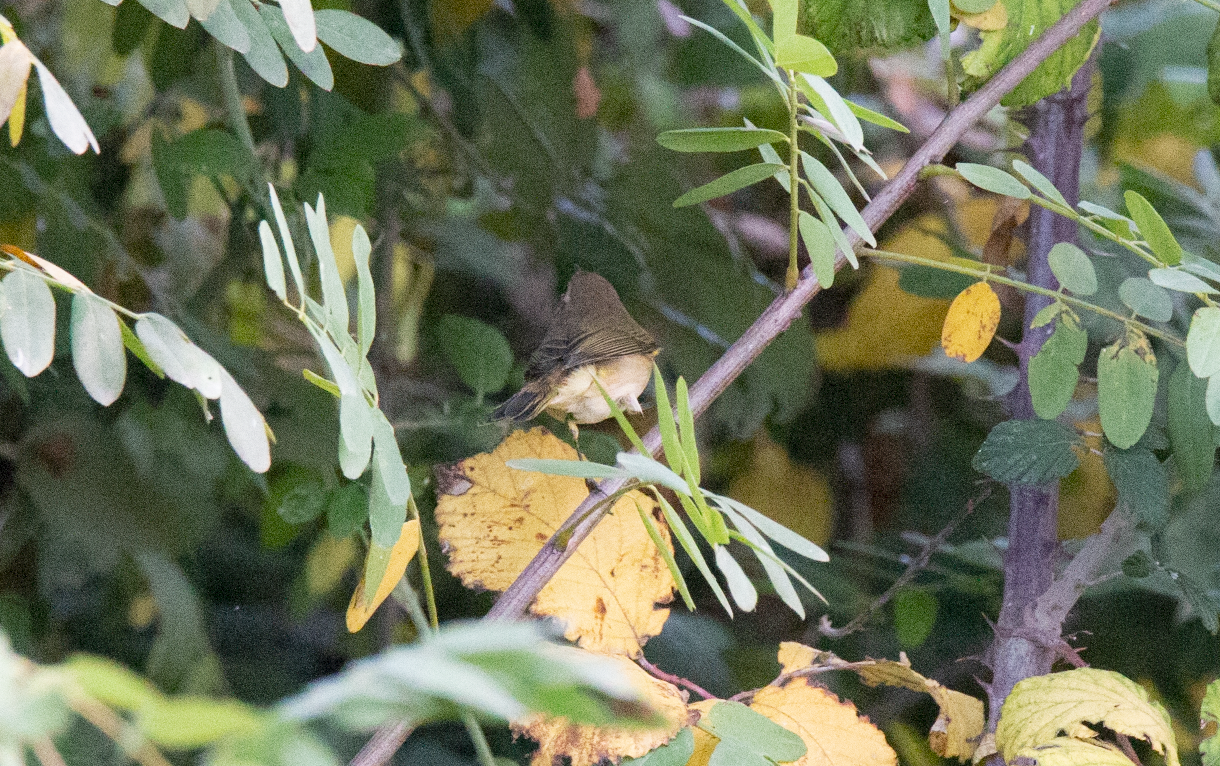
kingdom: Animalia
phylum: Chordata
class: Aves
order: Passeriformes
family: Phylloscopidae
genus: Phylloscopus
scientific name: Phylloscopus collybita
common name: Common chiffchaff
